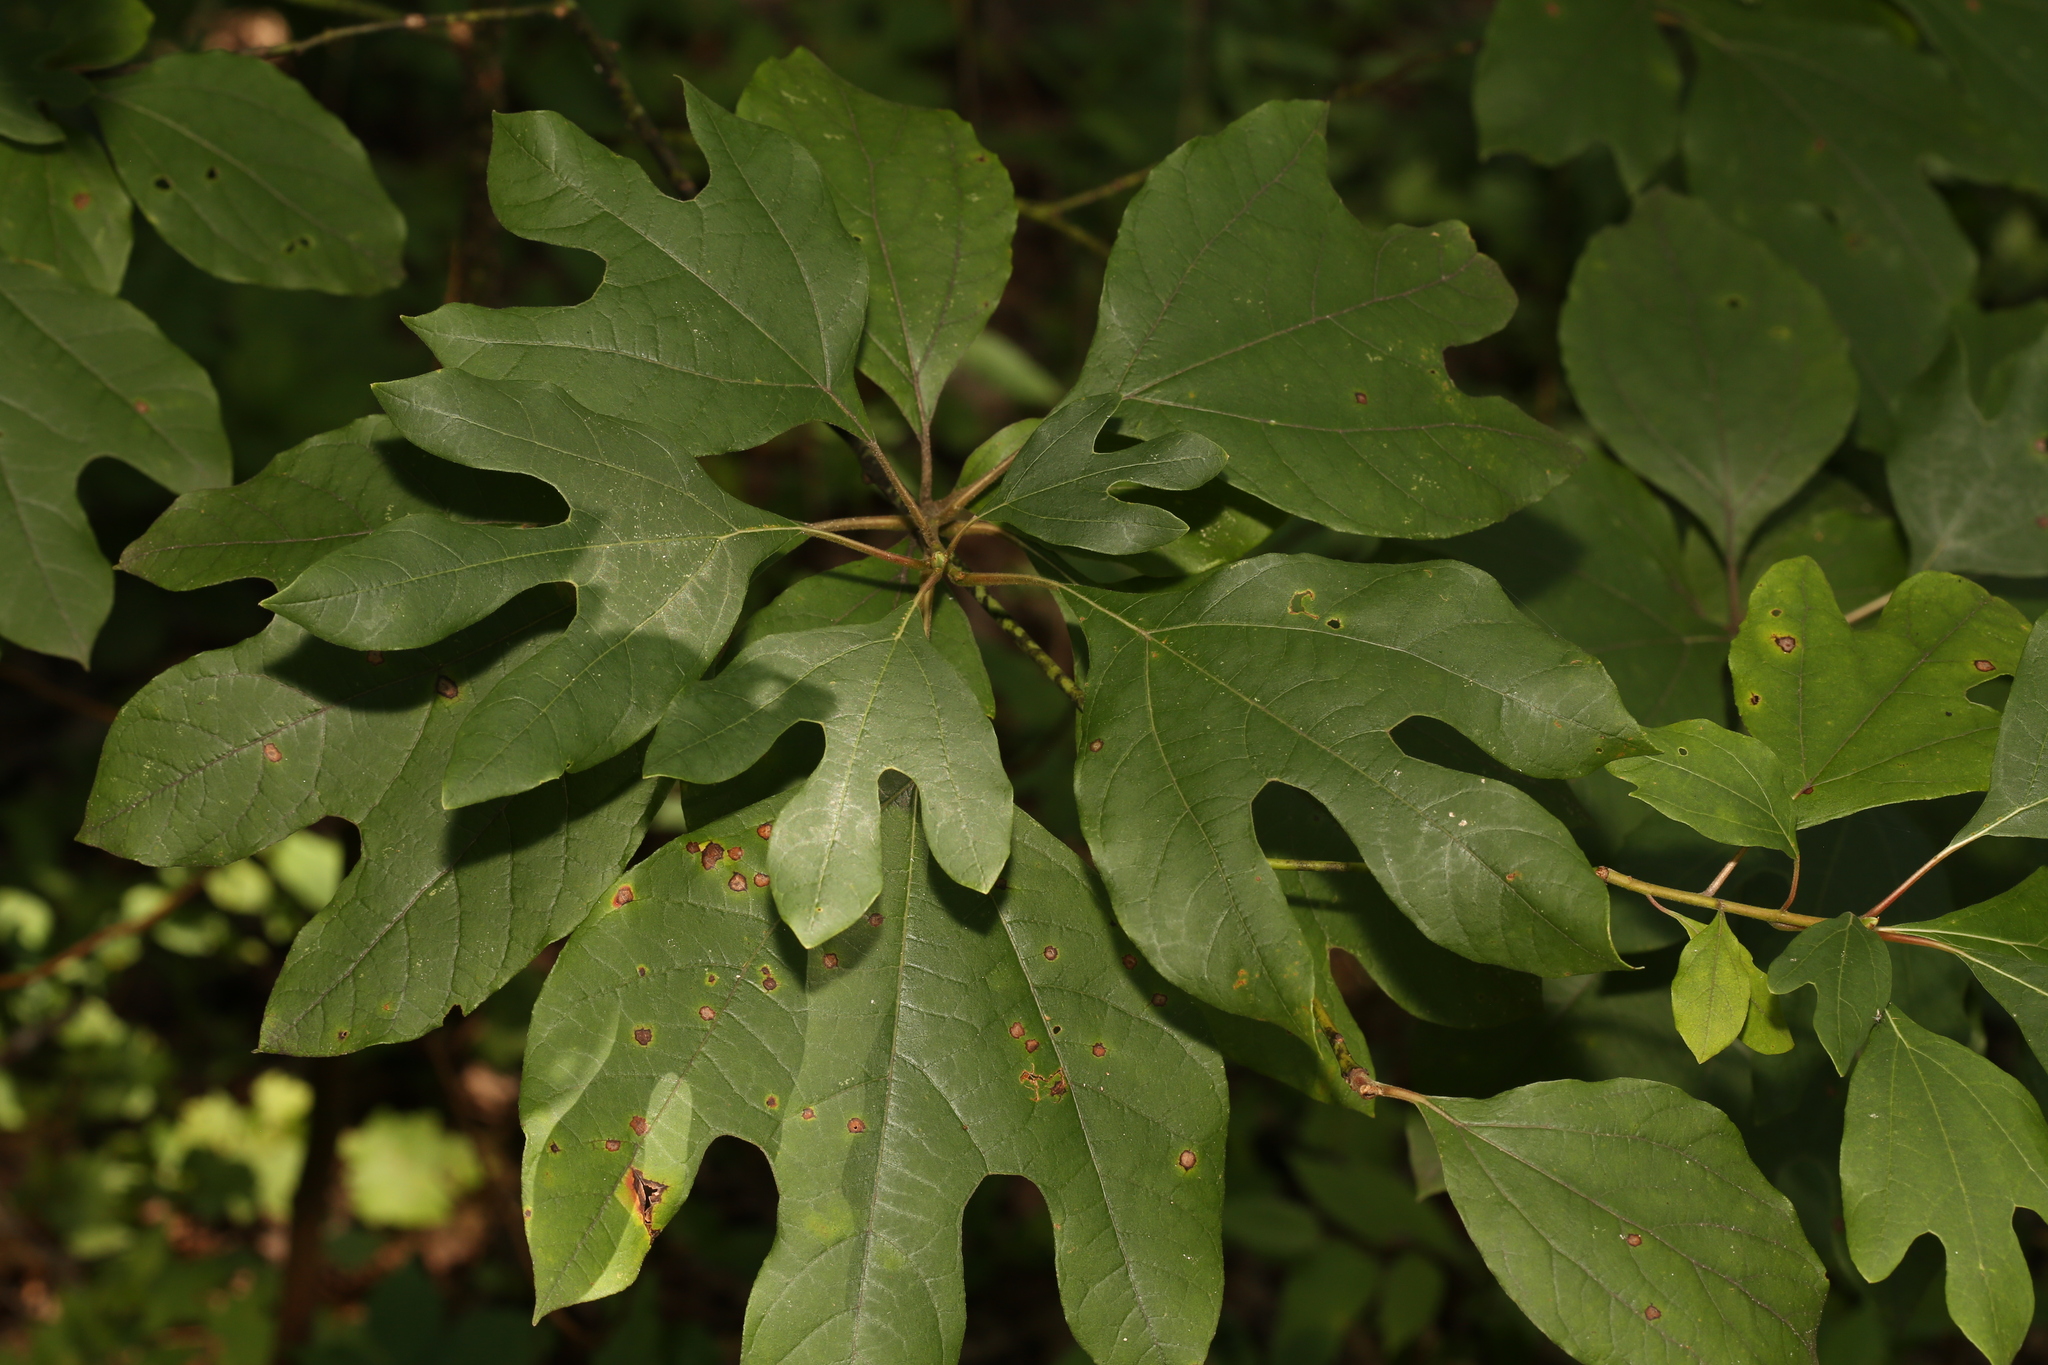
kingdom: Plantae
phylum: Tracheophyta
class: Magnoliopsida
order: Laurales
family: Lauraceae
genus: Sassafras
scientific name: Sassafras albidum
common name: Sassafras
